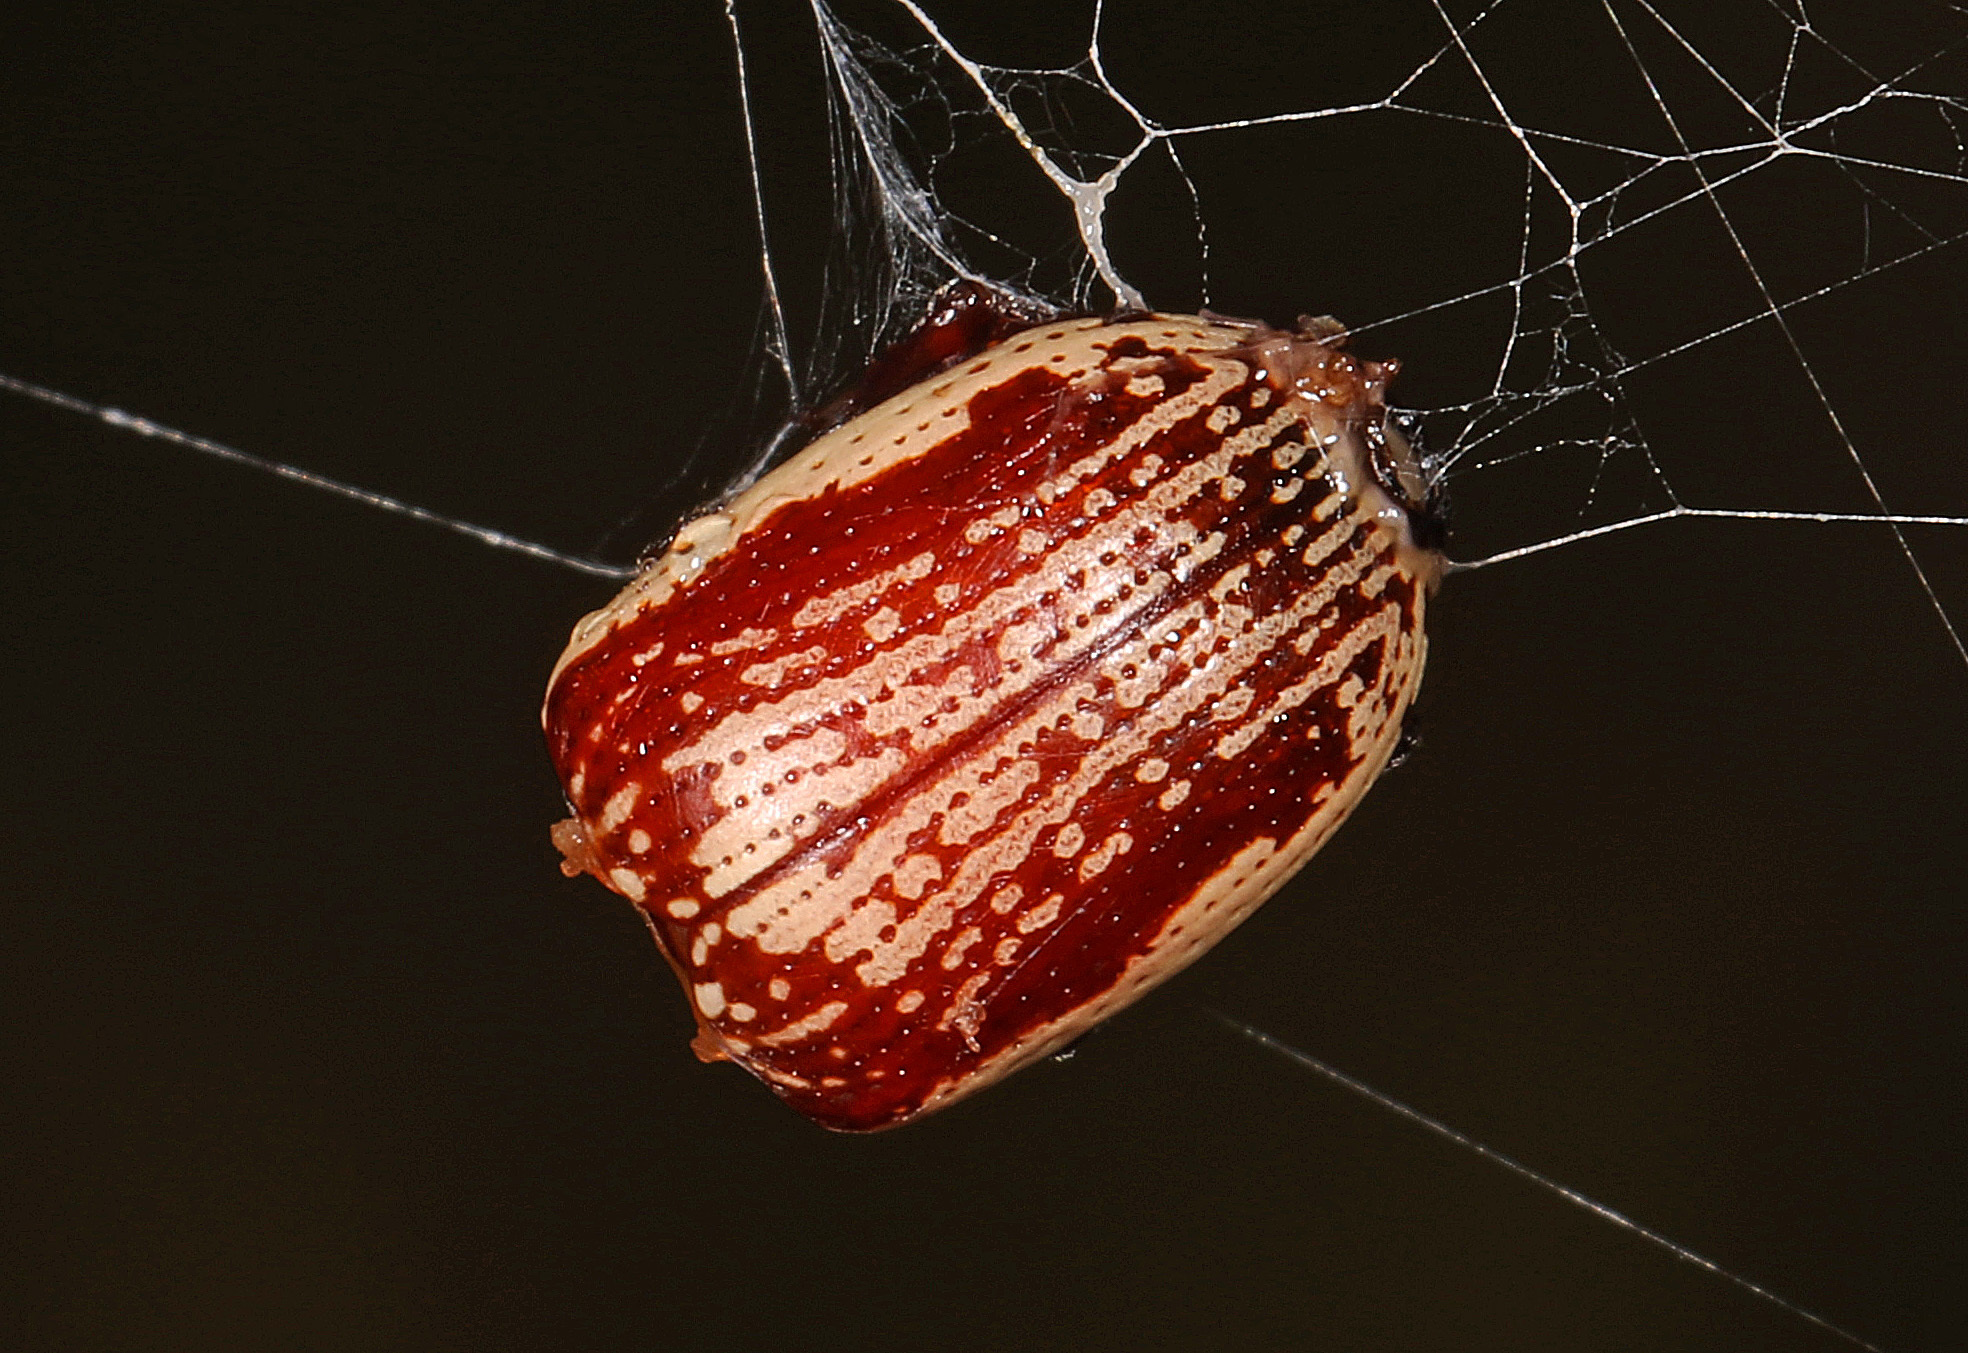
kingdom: Animalia
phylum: Arthropoda
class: Insecta
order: Coleoptera
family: Chrysomelidae
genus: Blepharida
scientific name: Blepharida rhois
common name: Sumac flea beetle
